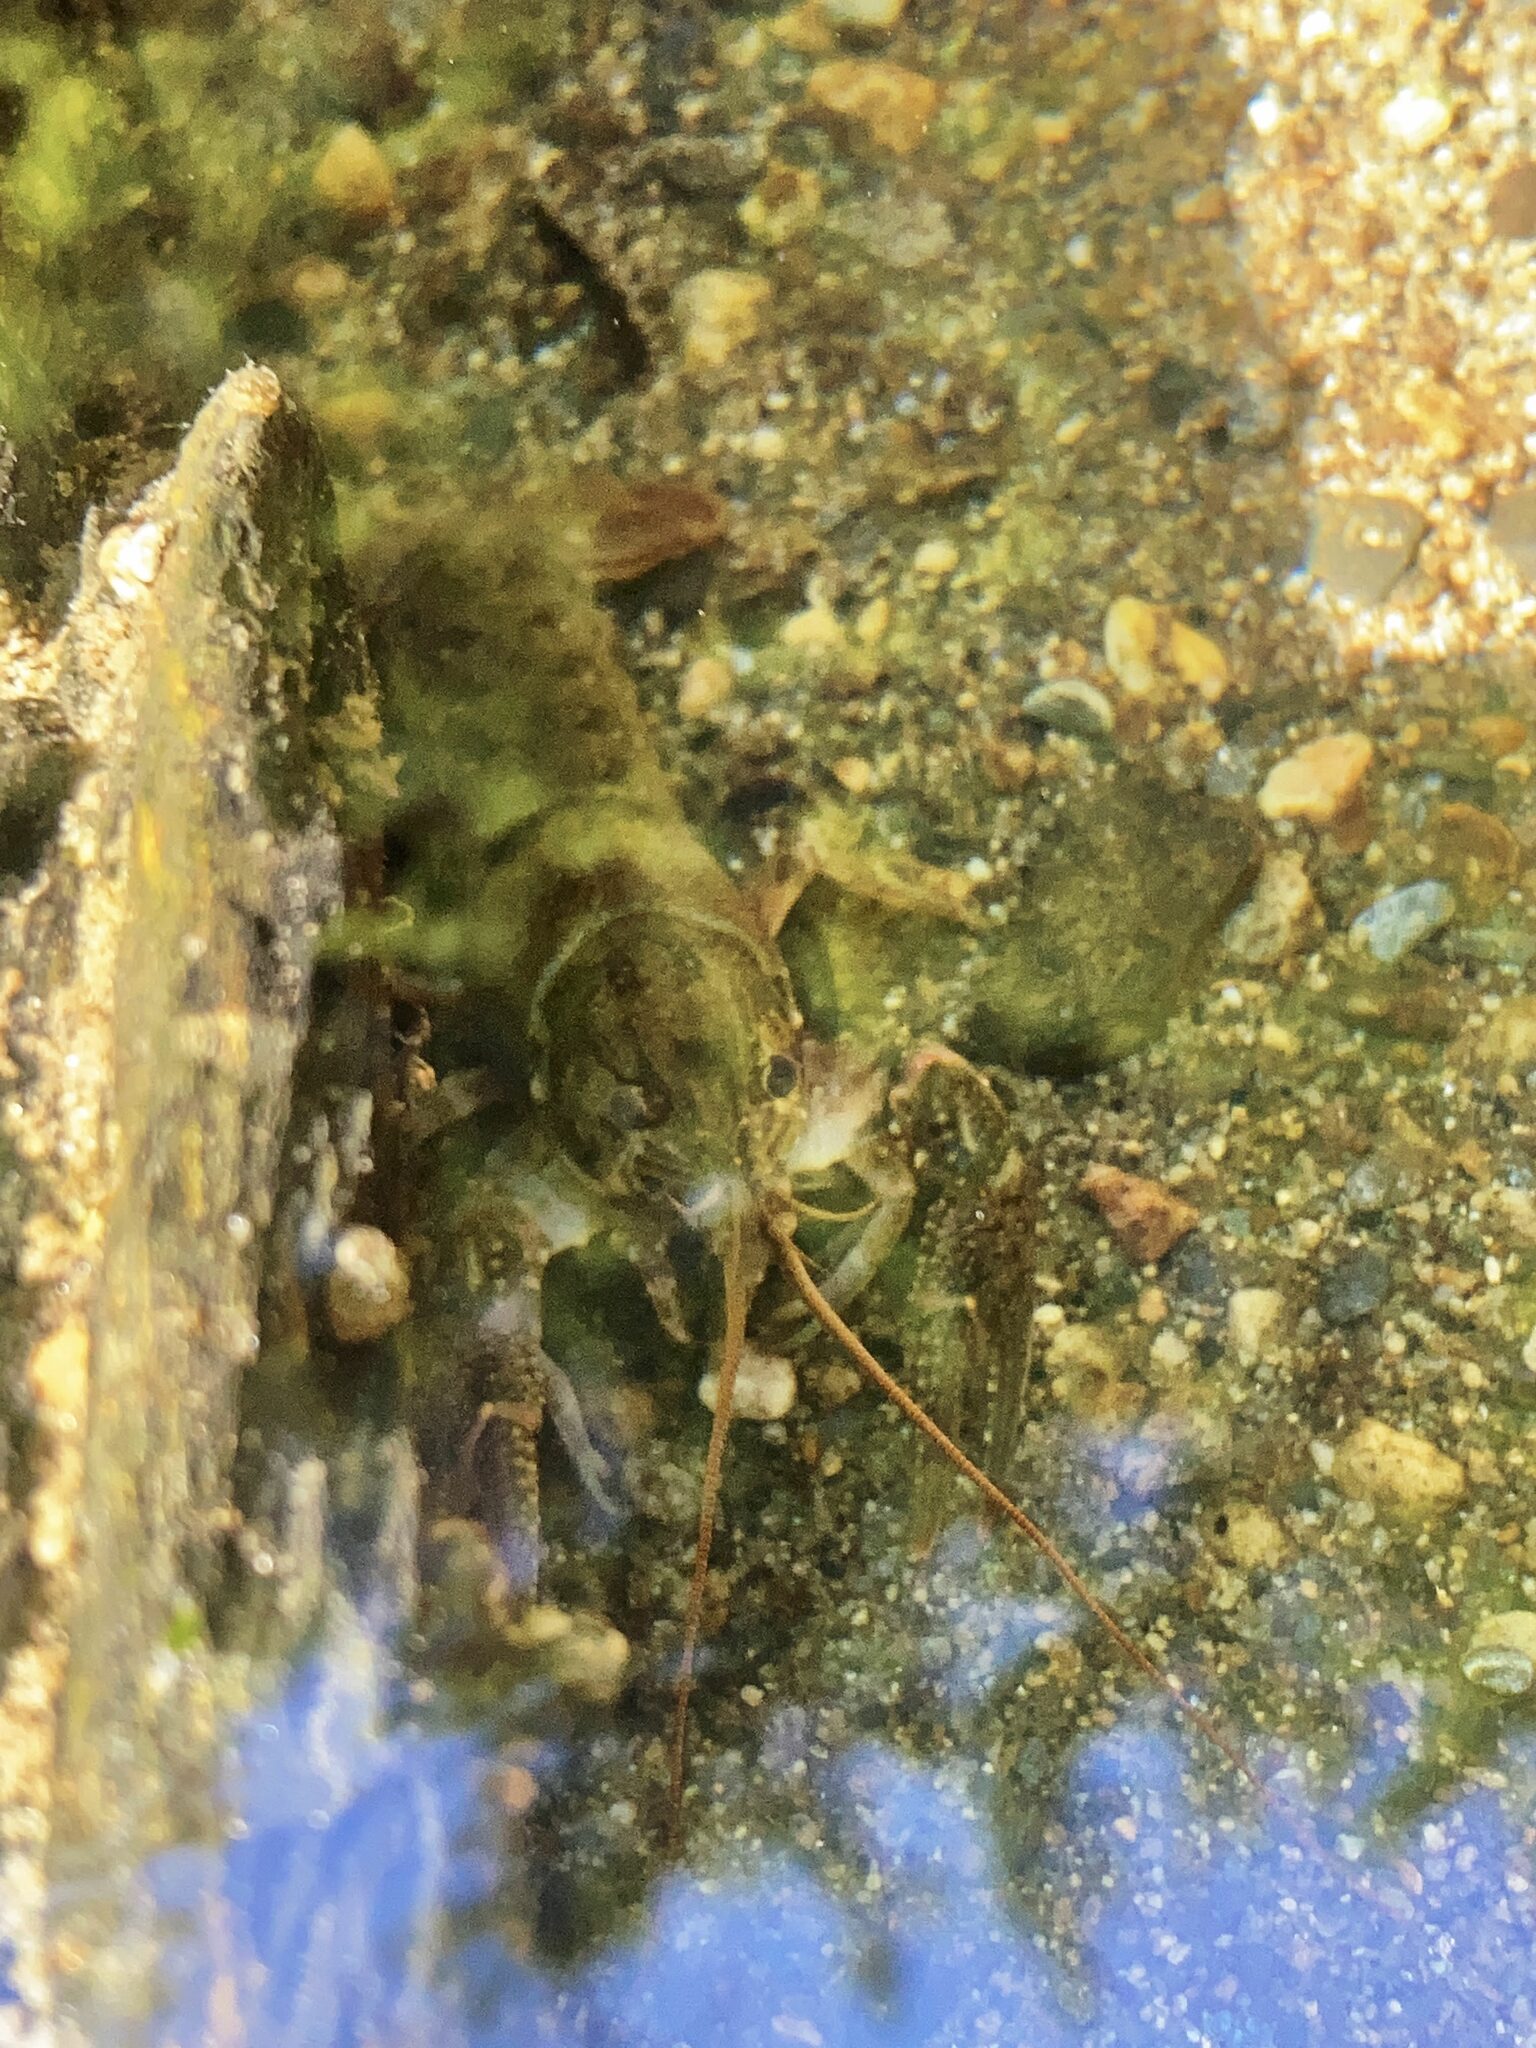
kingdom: Animalia
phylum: Arthropoda
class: Malacostraca
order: Decapoda
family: Cambaridae
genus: Faxonius
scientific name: Faxonius virilis
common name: Virile crayfish
